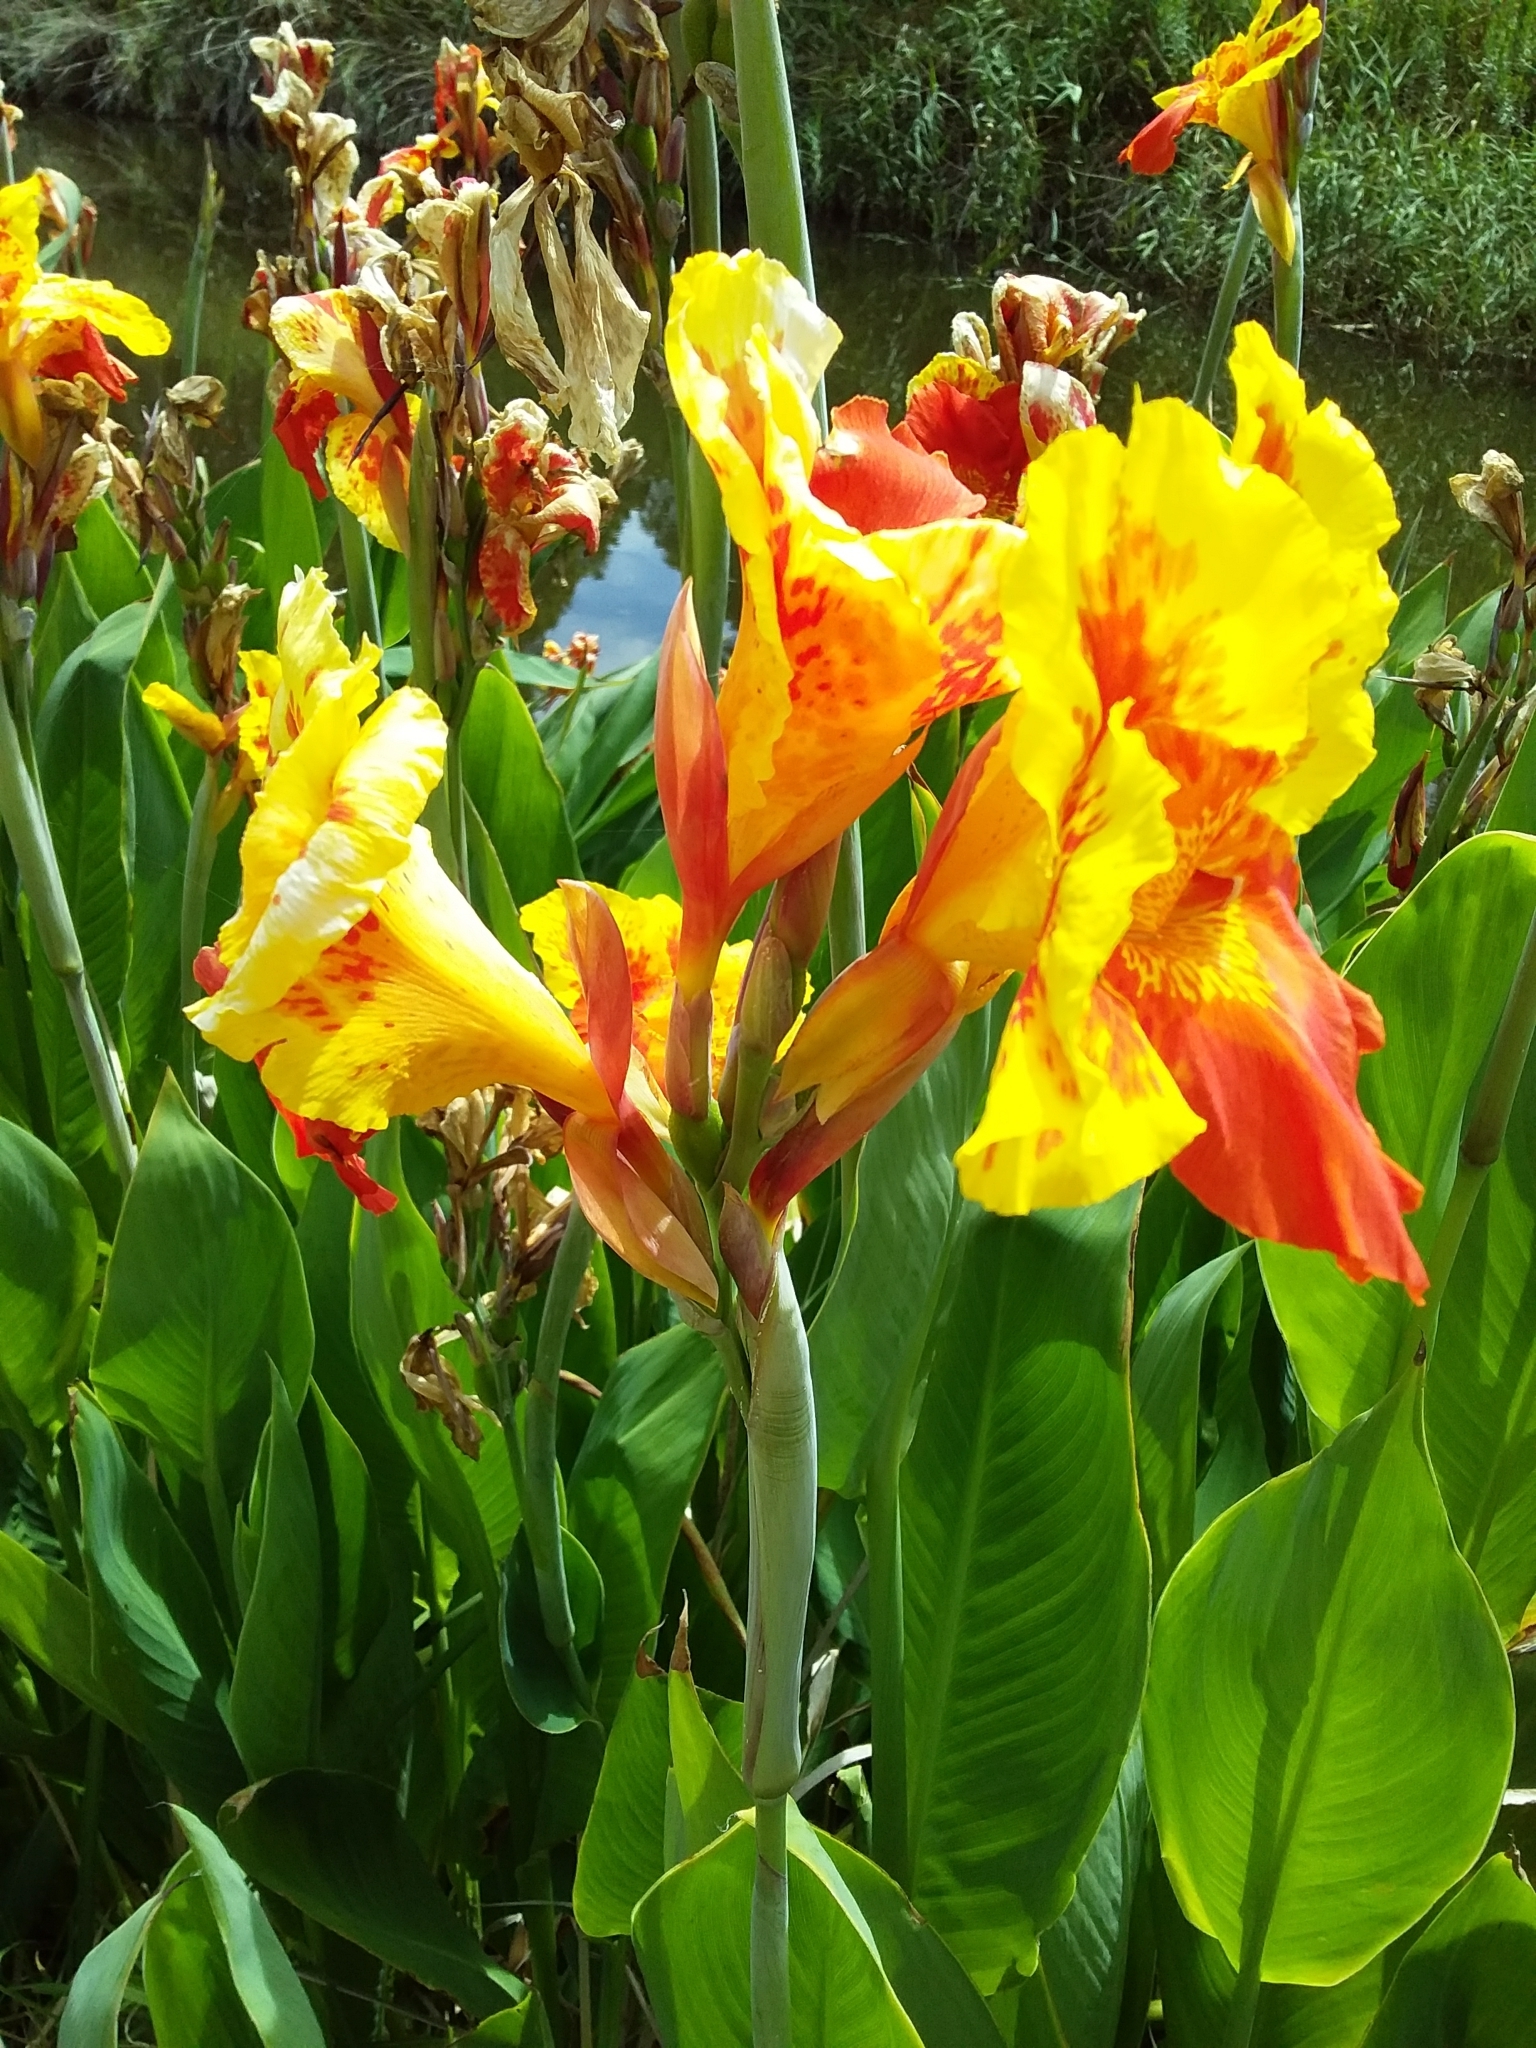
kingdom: Plantae
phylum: Tracheophyta
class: Liliopsida
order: Zingiberales
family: Cannaceae
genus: Canna
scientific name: Canna hybrida
